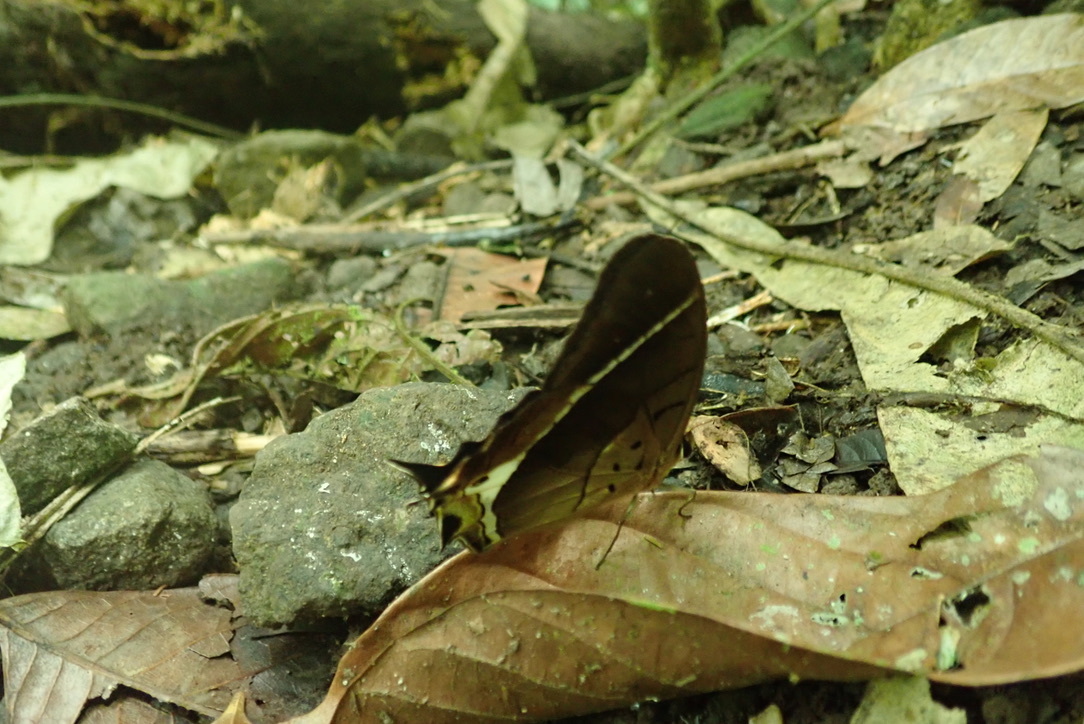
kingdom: Animalia
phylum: Arthropoda
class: Insecta
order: Lepidoptera
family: Nymphalidae
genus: Antirrhea
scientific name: Antirrhea philaretes
